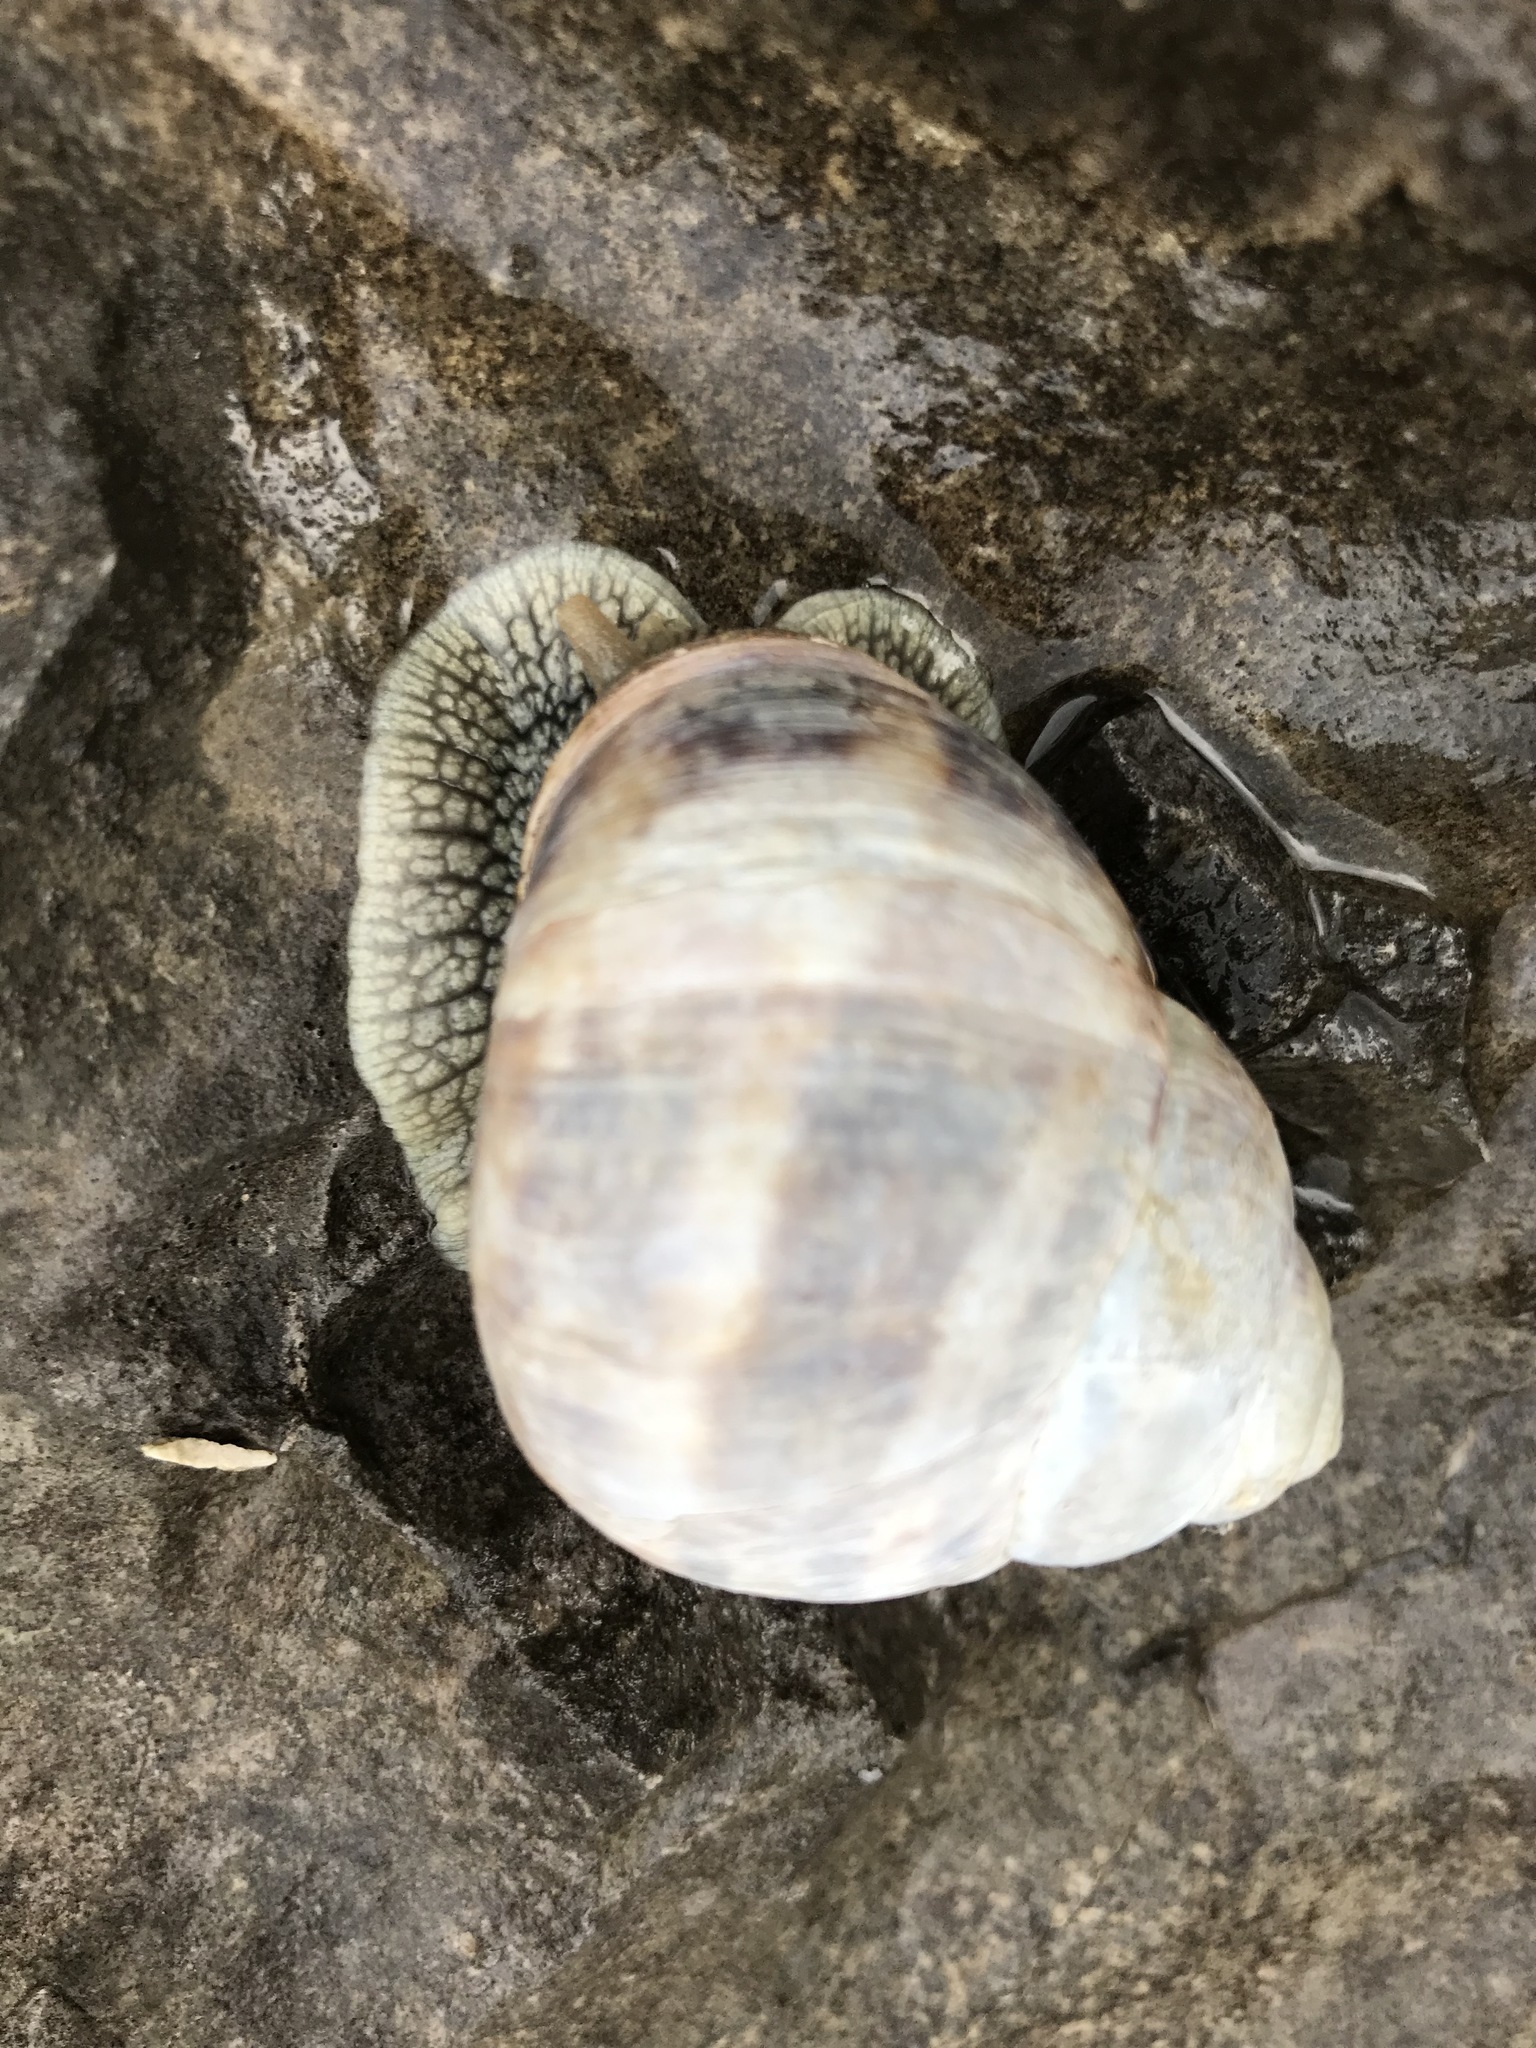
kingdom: Animalia
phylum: Mollusca
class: Gastropoda
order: Stylommatophora
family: Helicidae
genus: Helix
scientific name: Helix dormitoris
